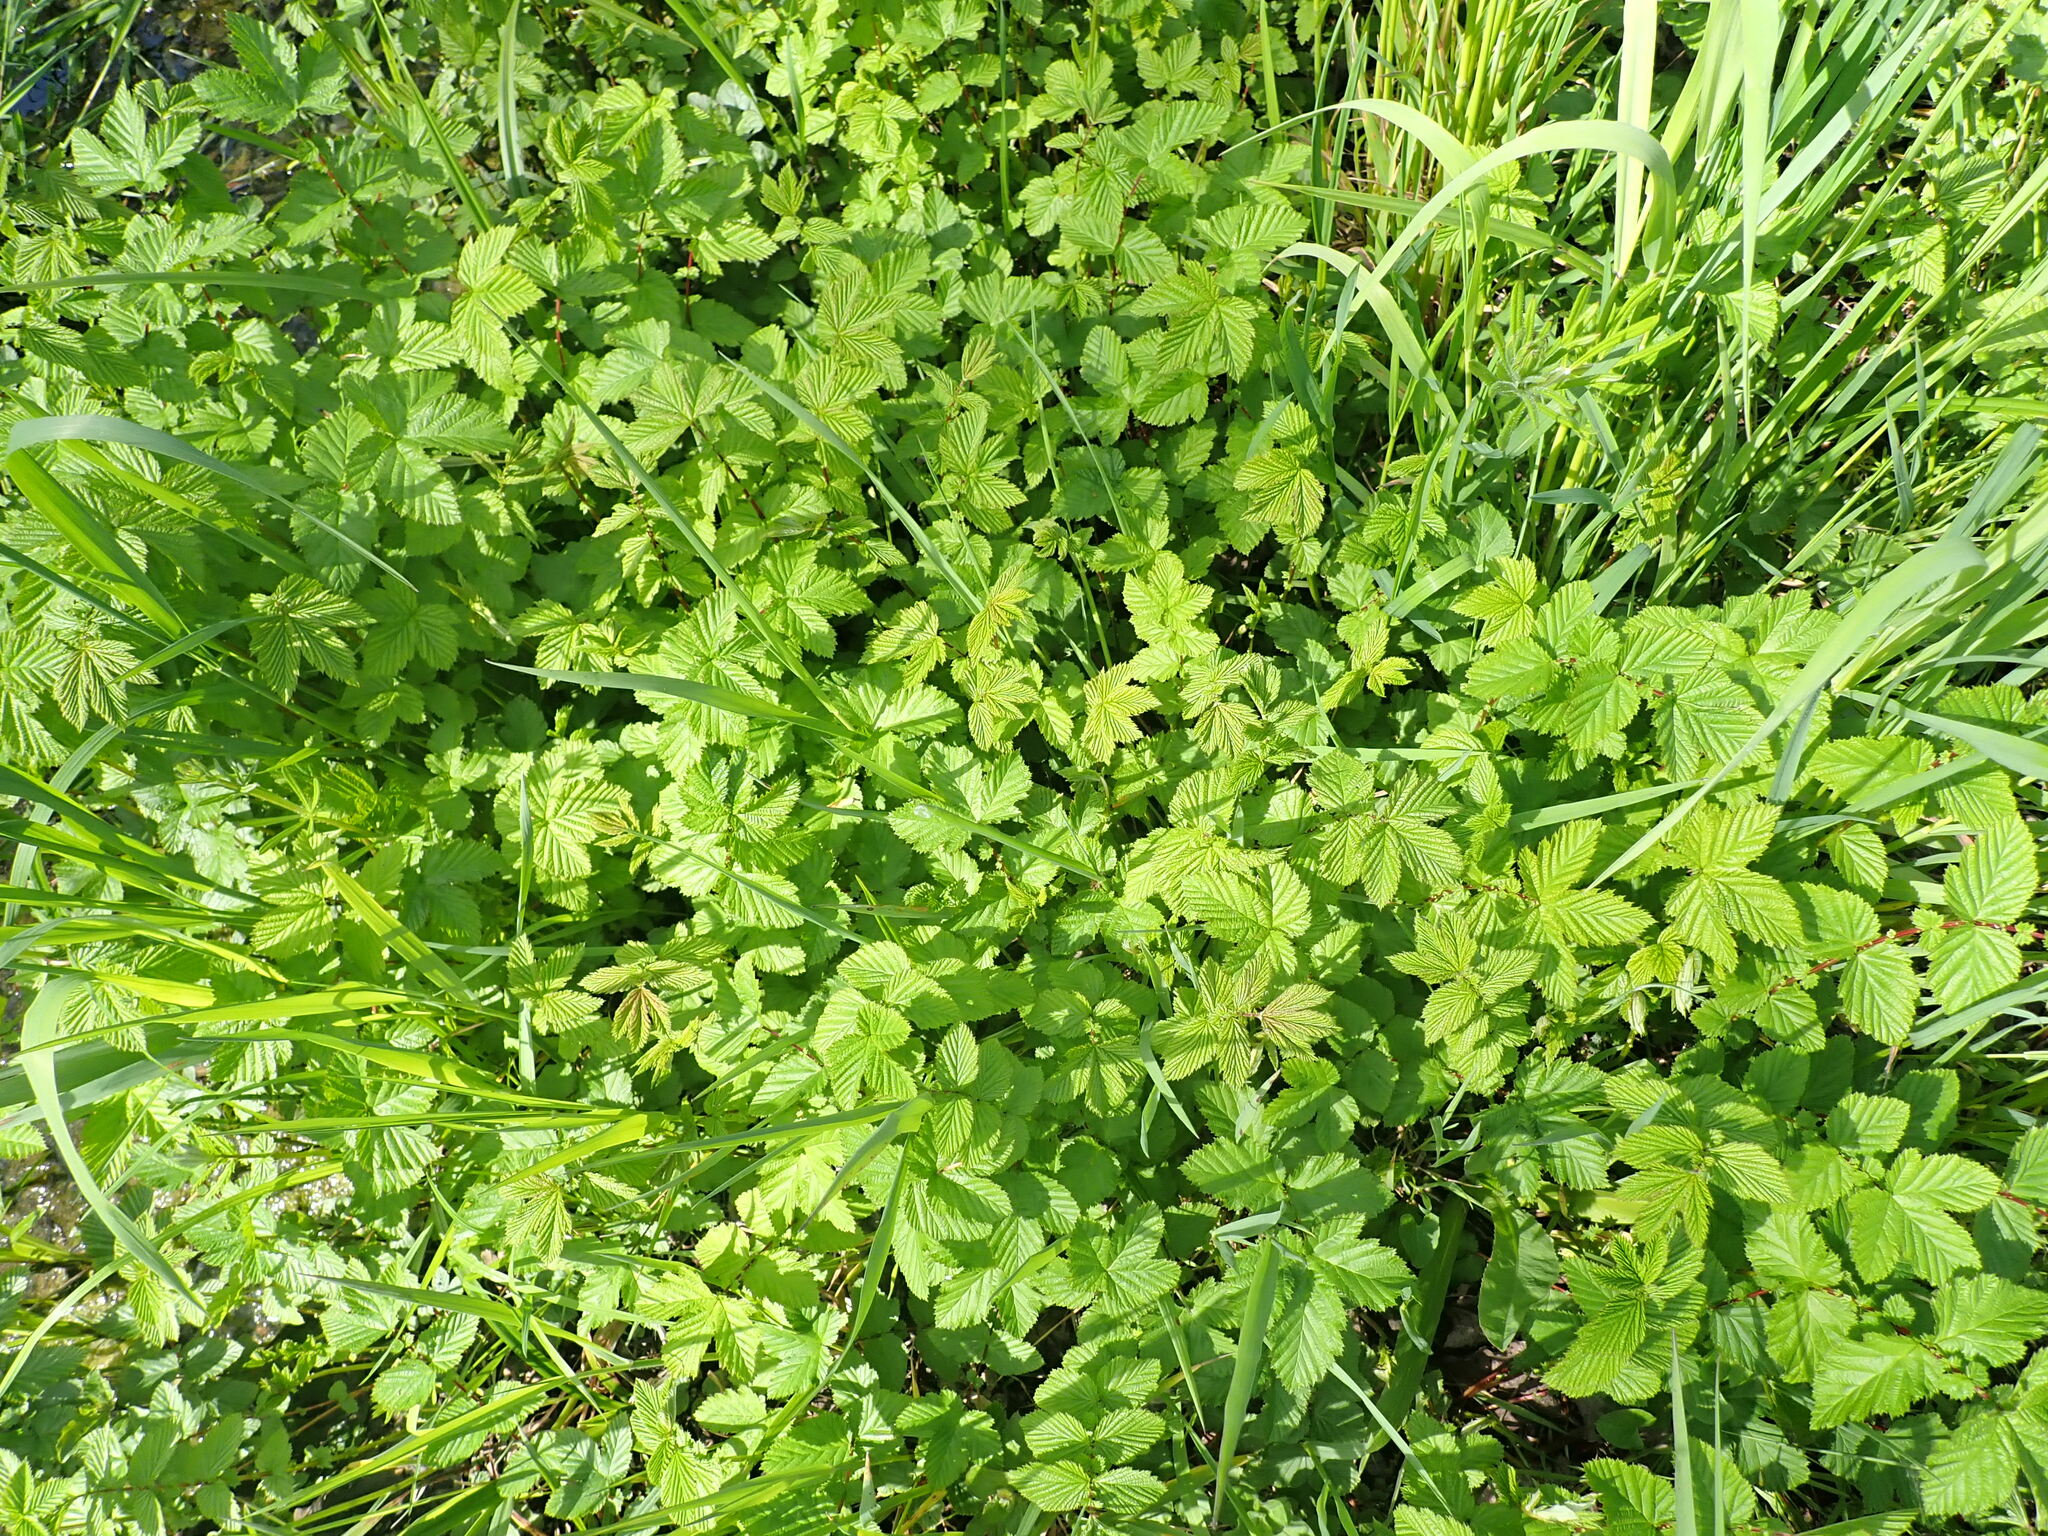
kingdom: Plantae
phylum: Tracheophyta
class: Magnoliopsida
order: Rosales
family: Rosaceae
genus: Filipendula
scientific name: Filipendula ulmaria
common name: Meadowsweet
